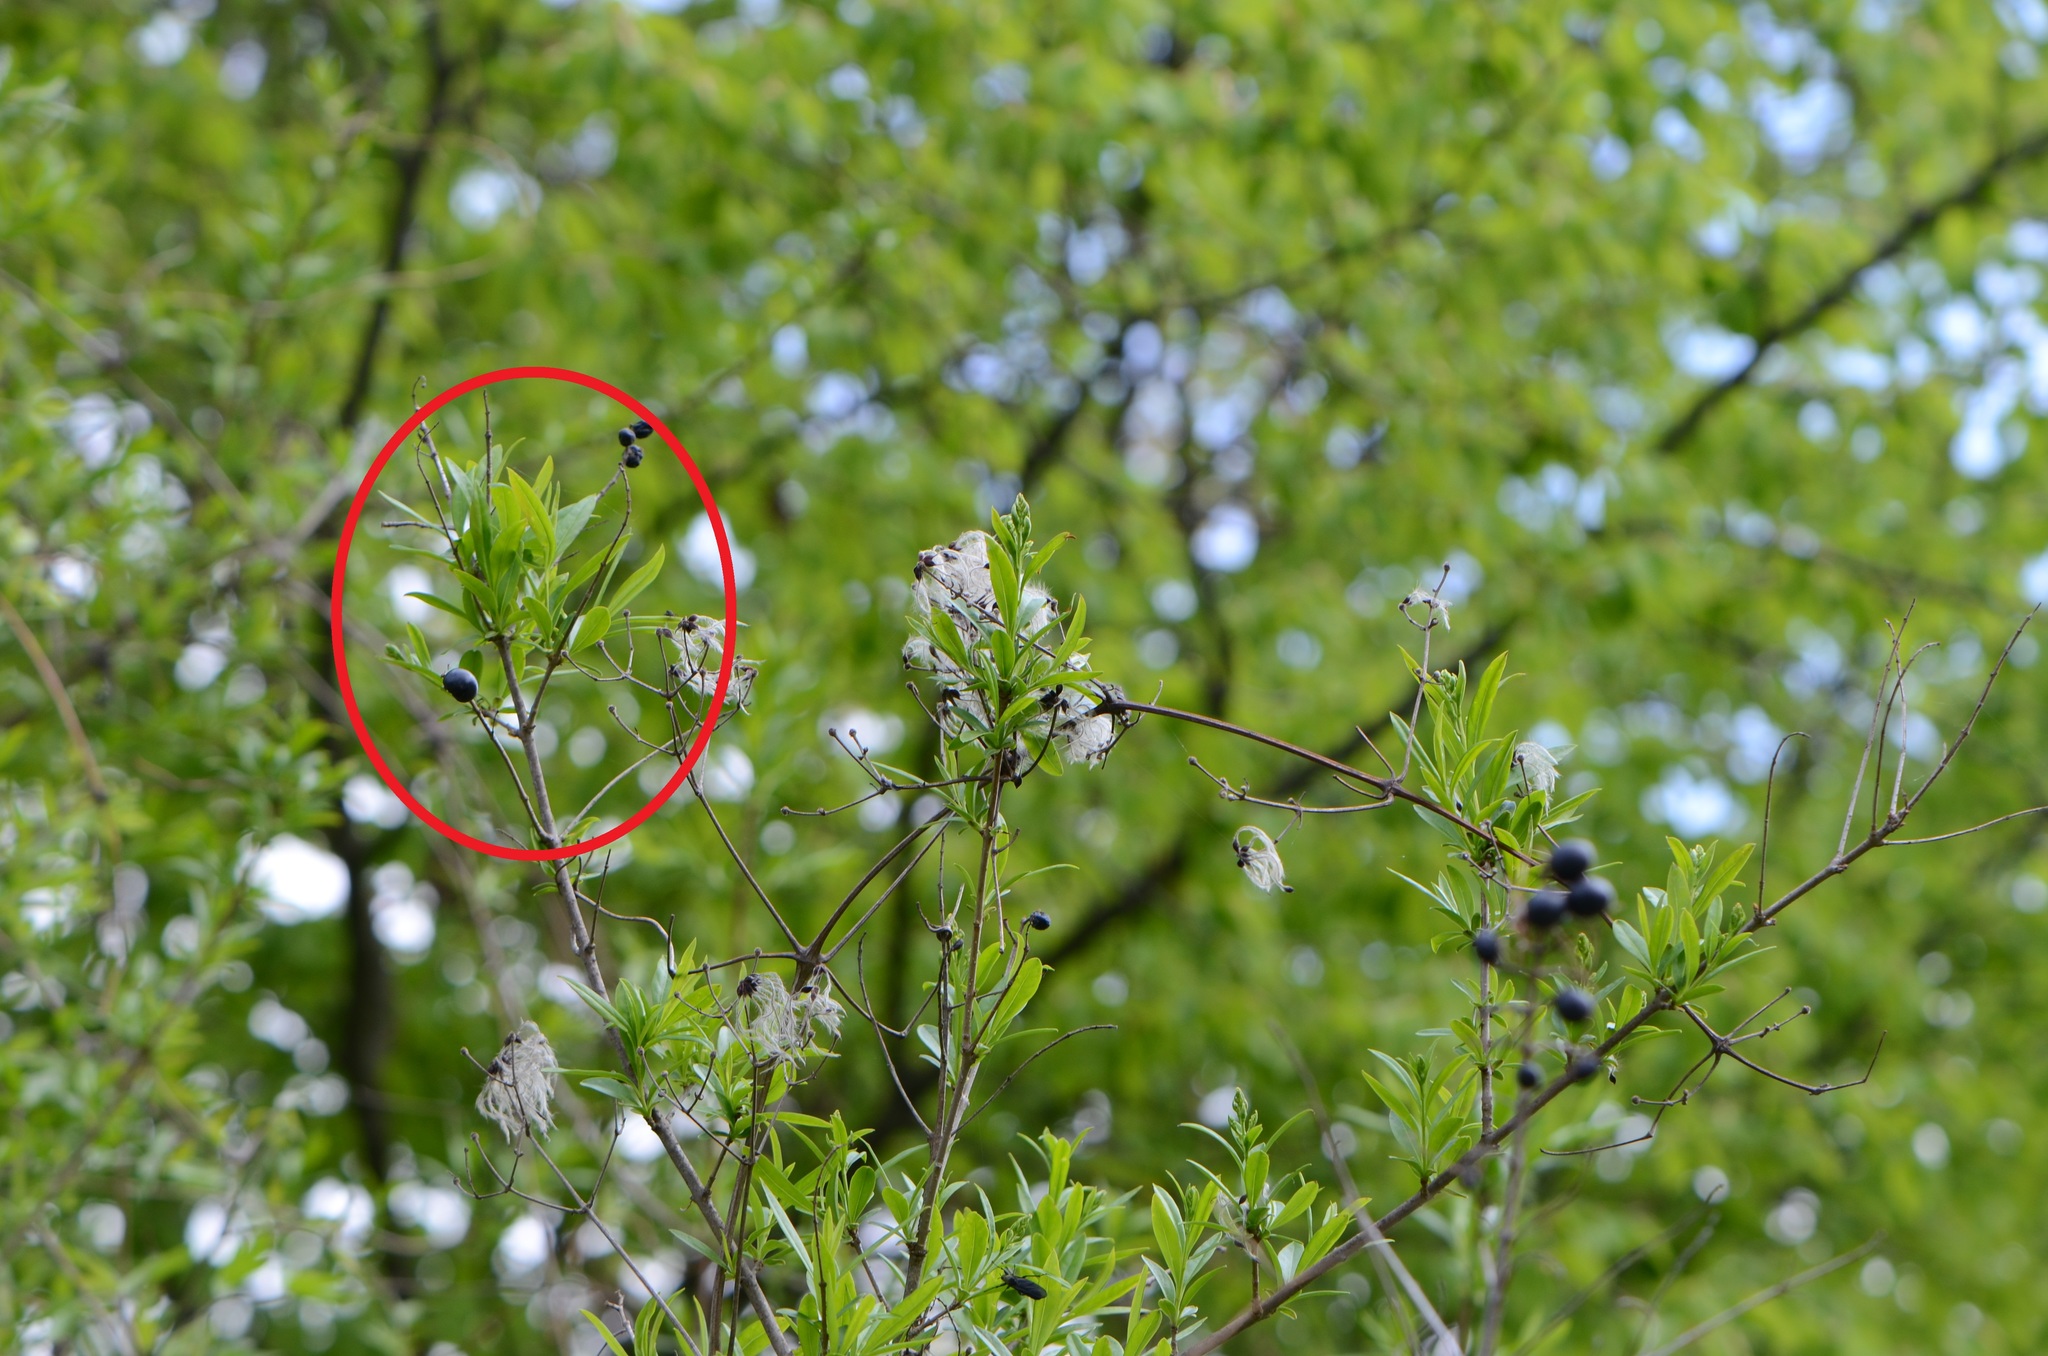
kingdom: Plantae
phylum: Tracheophyta
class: Magnoliopsida
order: Lamiales
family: Oleaceae
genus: Ligustrum
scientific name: Ligustrum vulgare
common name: Wild privet
